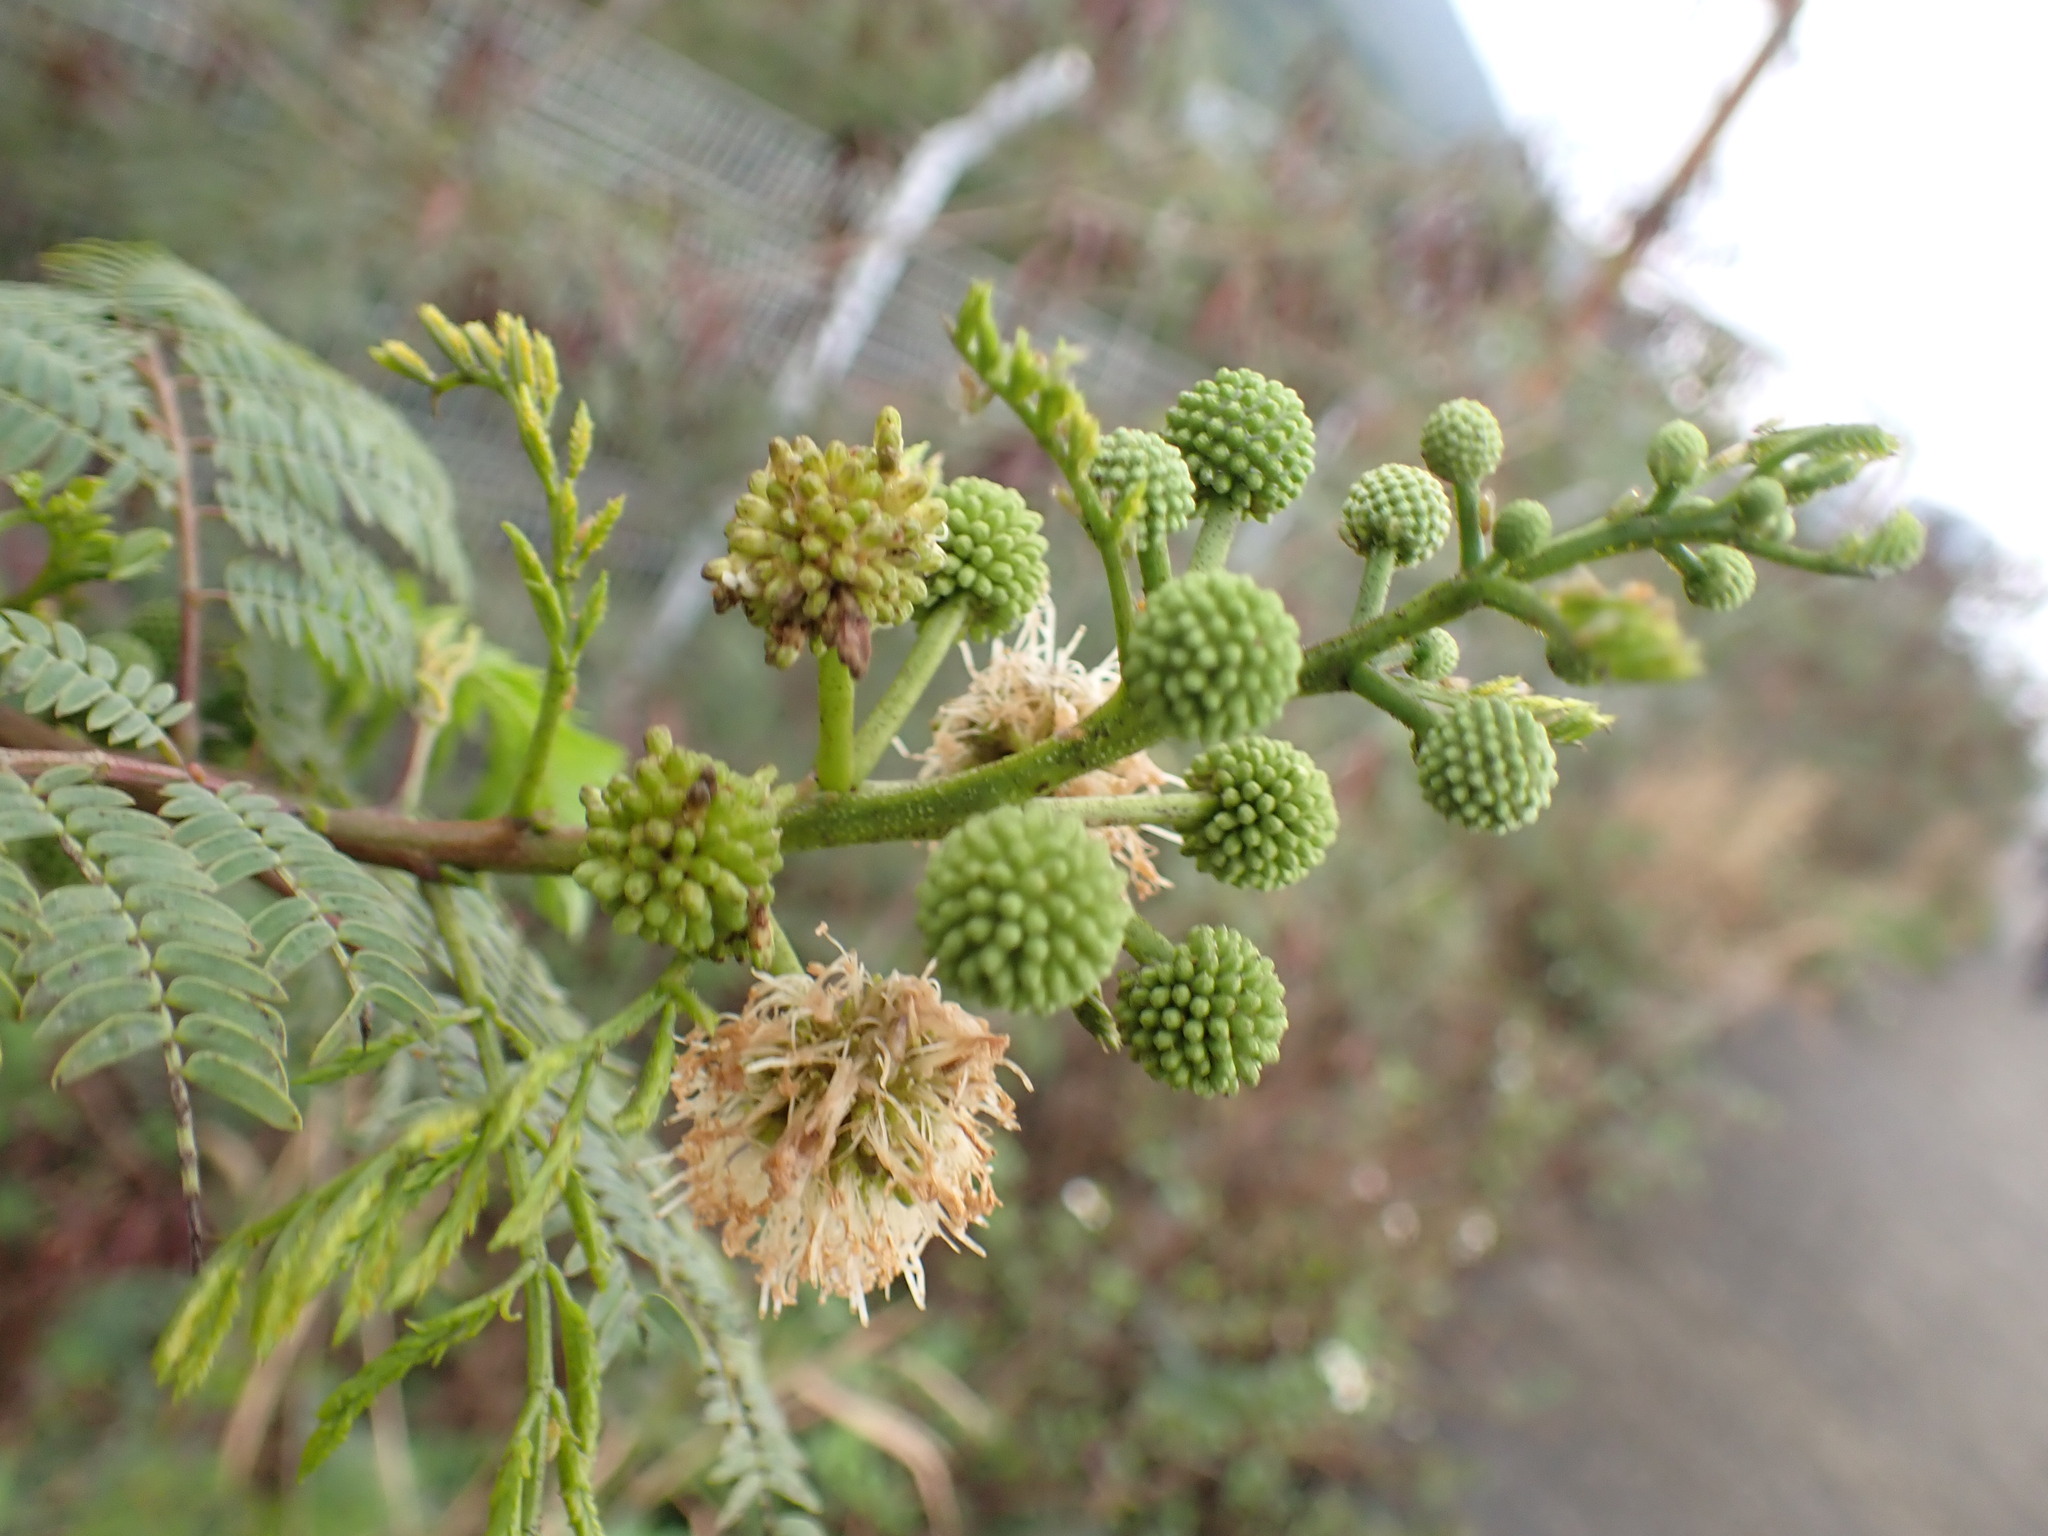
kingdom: Plantae
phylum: Tracheophyta
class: Magnoliopsida
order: Fabales
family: Fabaceae
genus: Leucaena
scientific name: Leucaena leucocephala
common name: White leadtree
